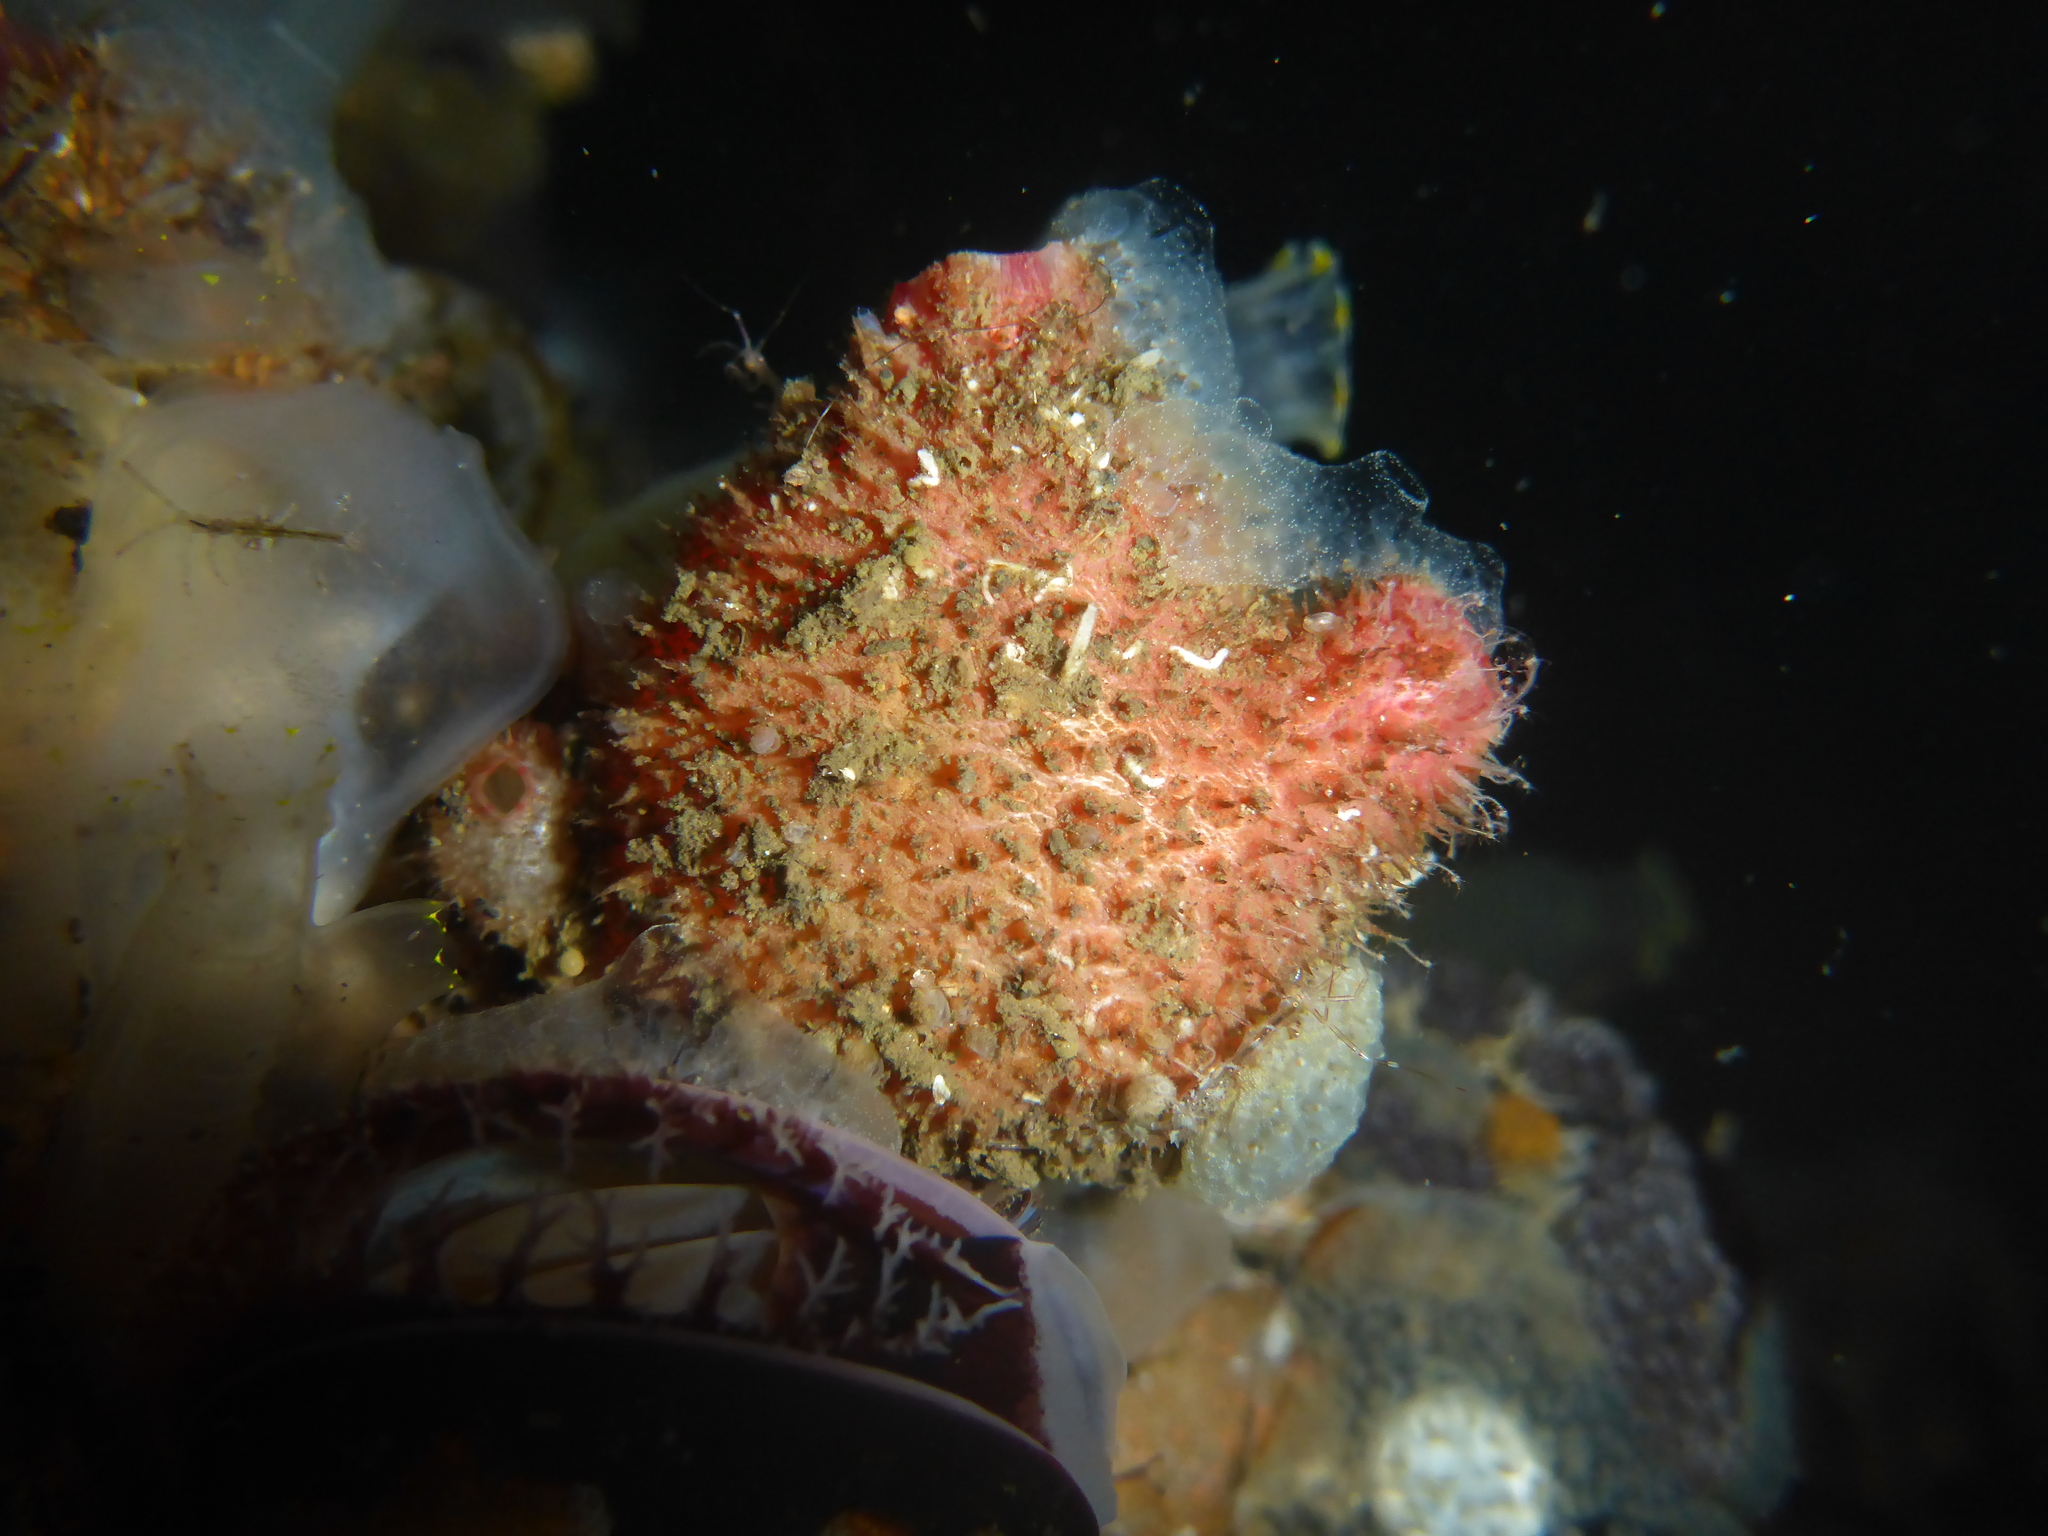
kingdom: Animalia
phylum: Chordata
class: Ascidiacea
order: Stolidobranchia
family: Pyuridae
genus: Boltenia
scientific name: Boltenia villosa
